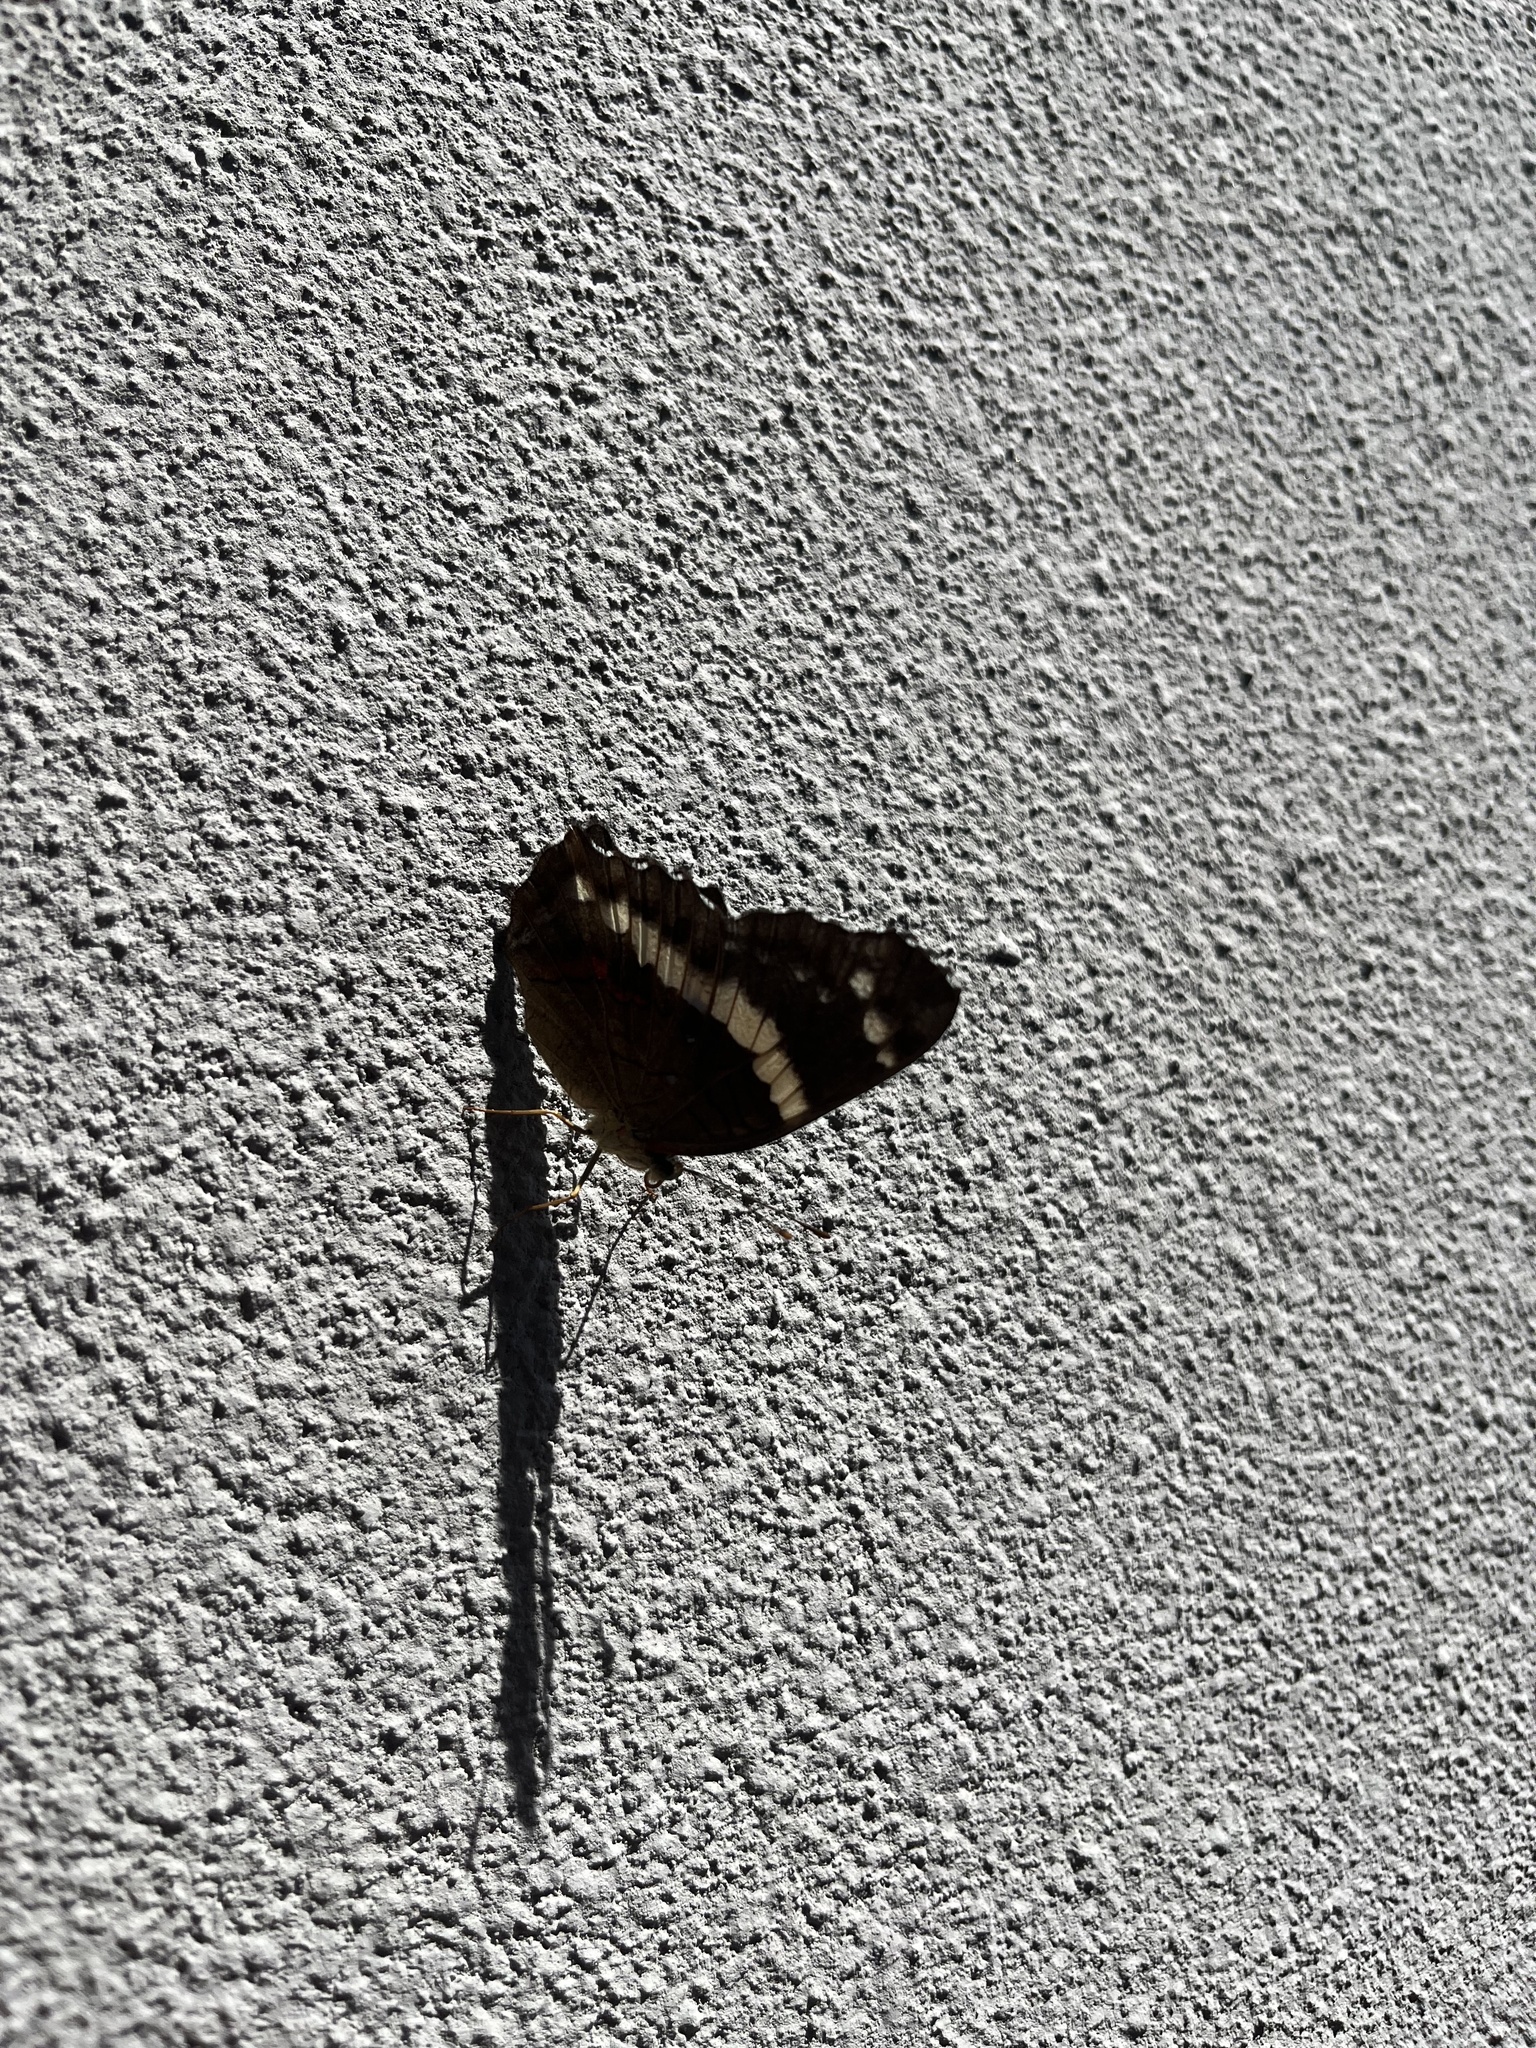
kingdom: Animalia
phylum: Arthropoda
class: Insecta
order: Lepidoptera
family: Nymphalidae
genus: Anartia
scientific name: Anartia fatima
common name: Banded peacock
